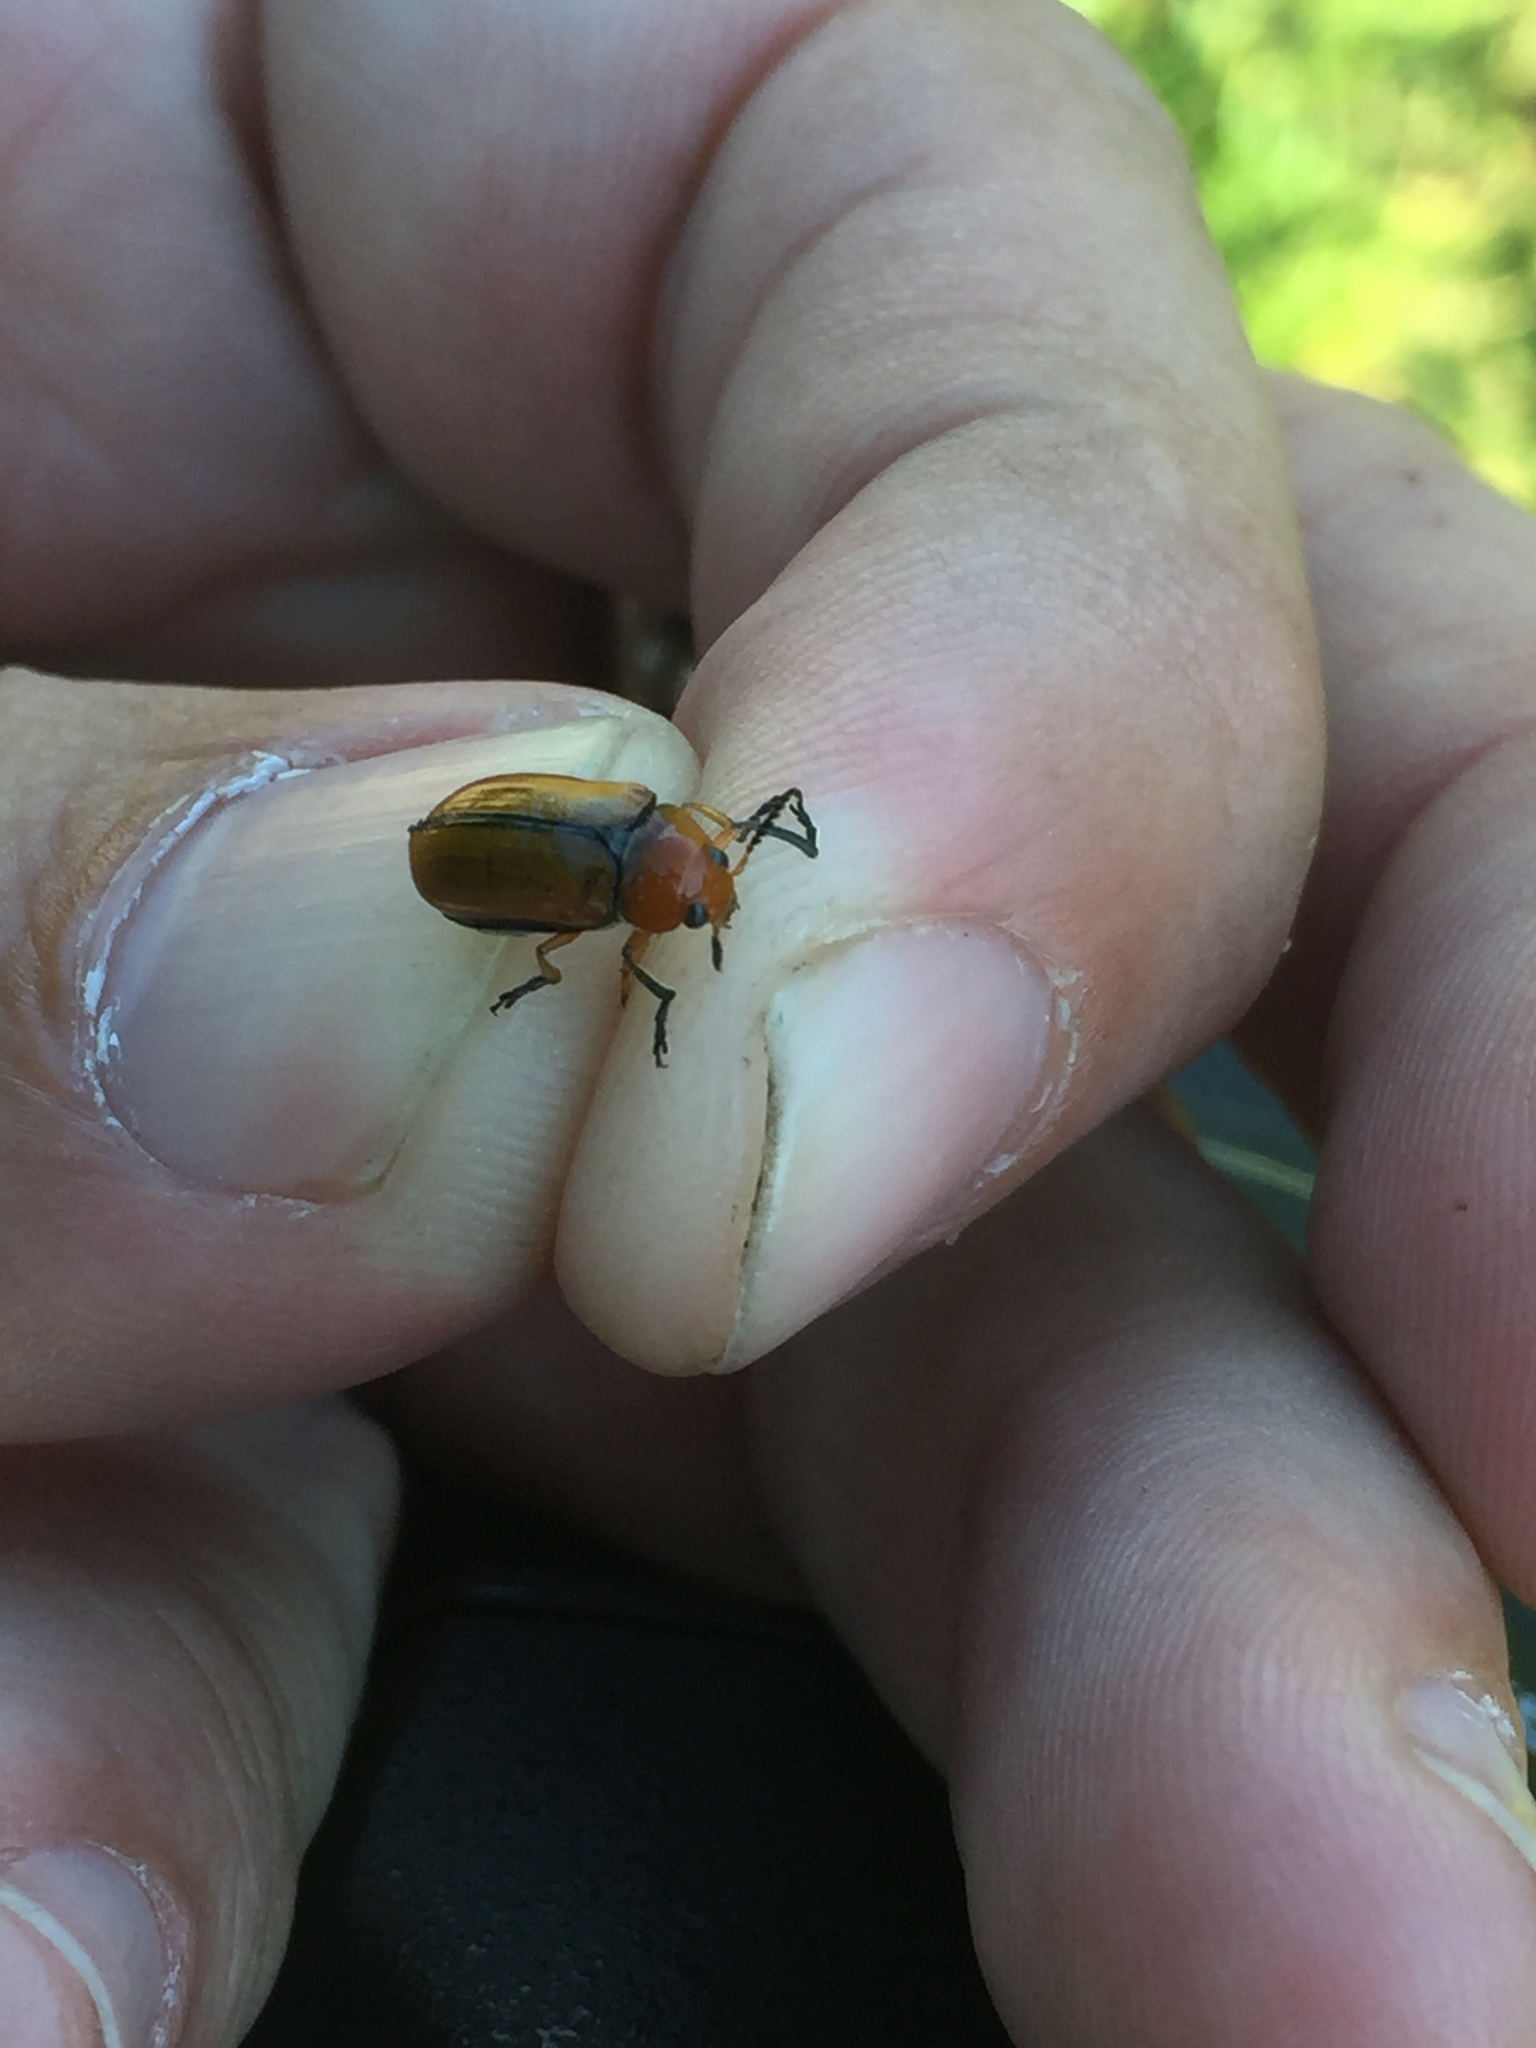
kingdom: Animalia
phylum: Arthropoda
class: Insecta
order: Coleoptera
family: Chrysomelidae
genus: Anomoea
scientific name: Anomoea laticlavia
